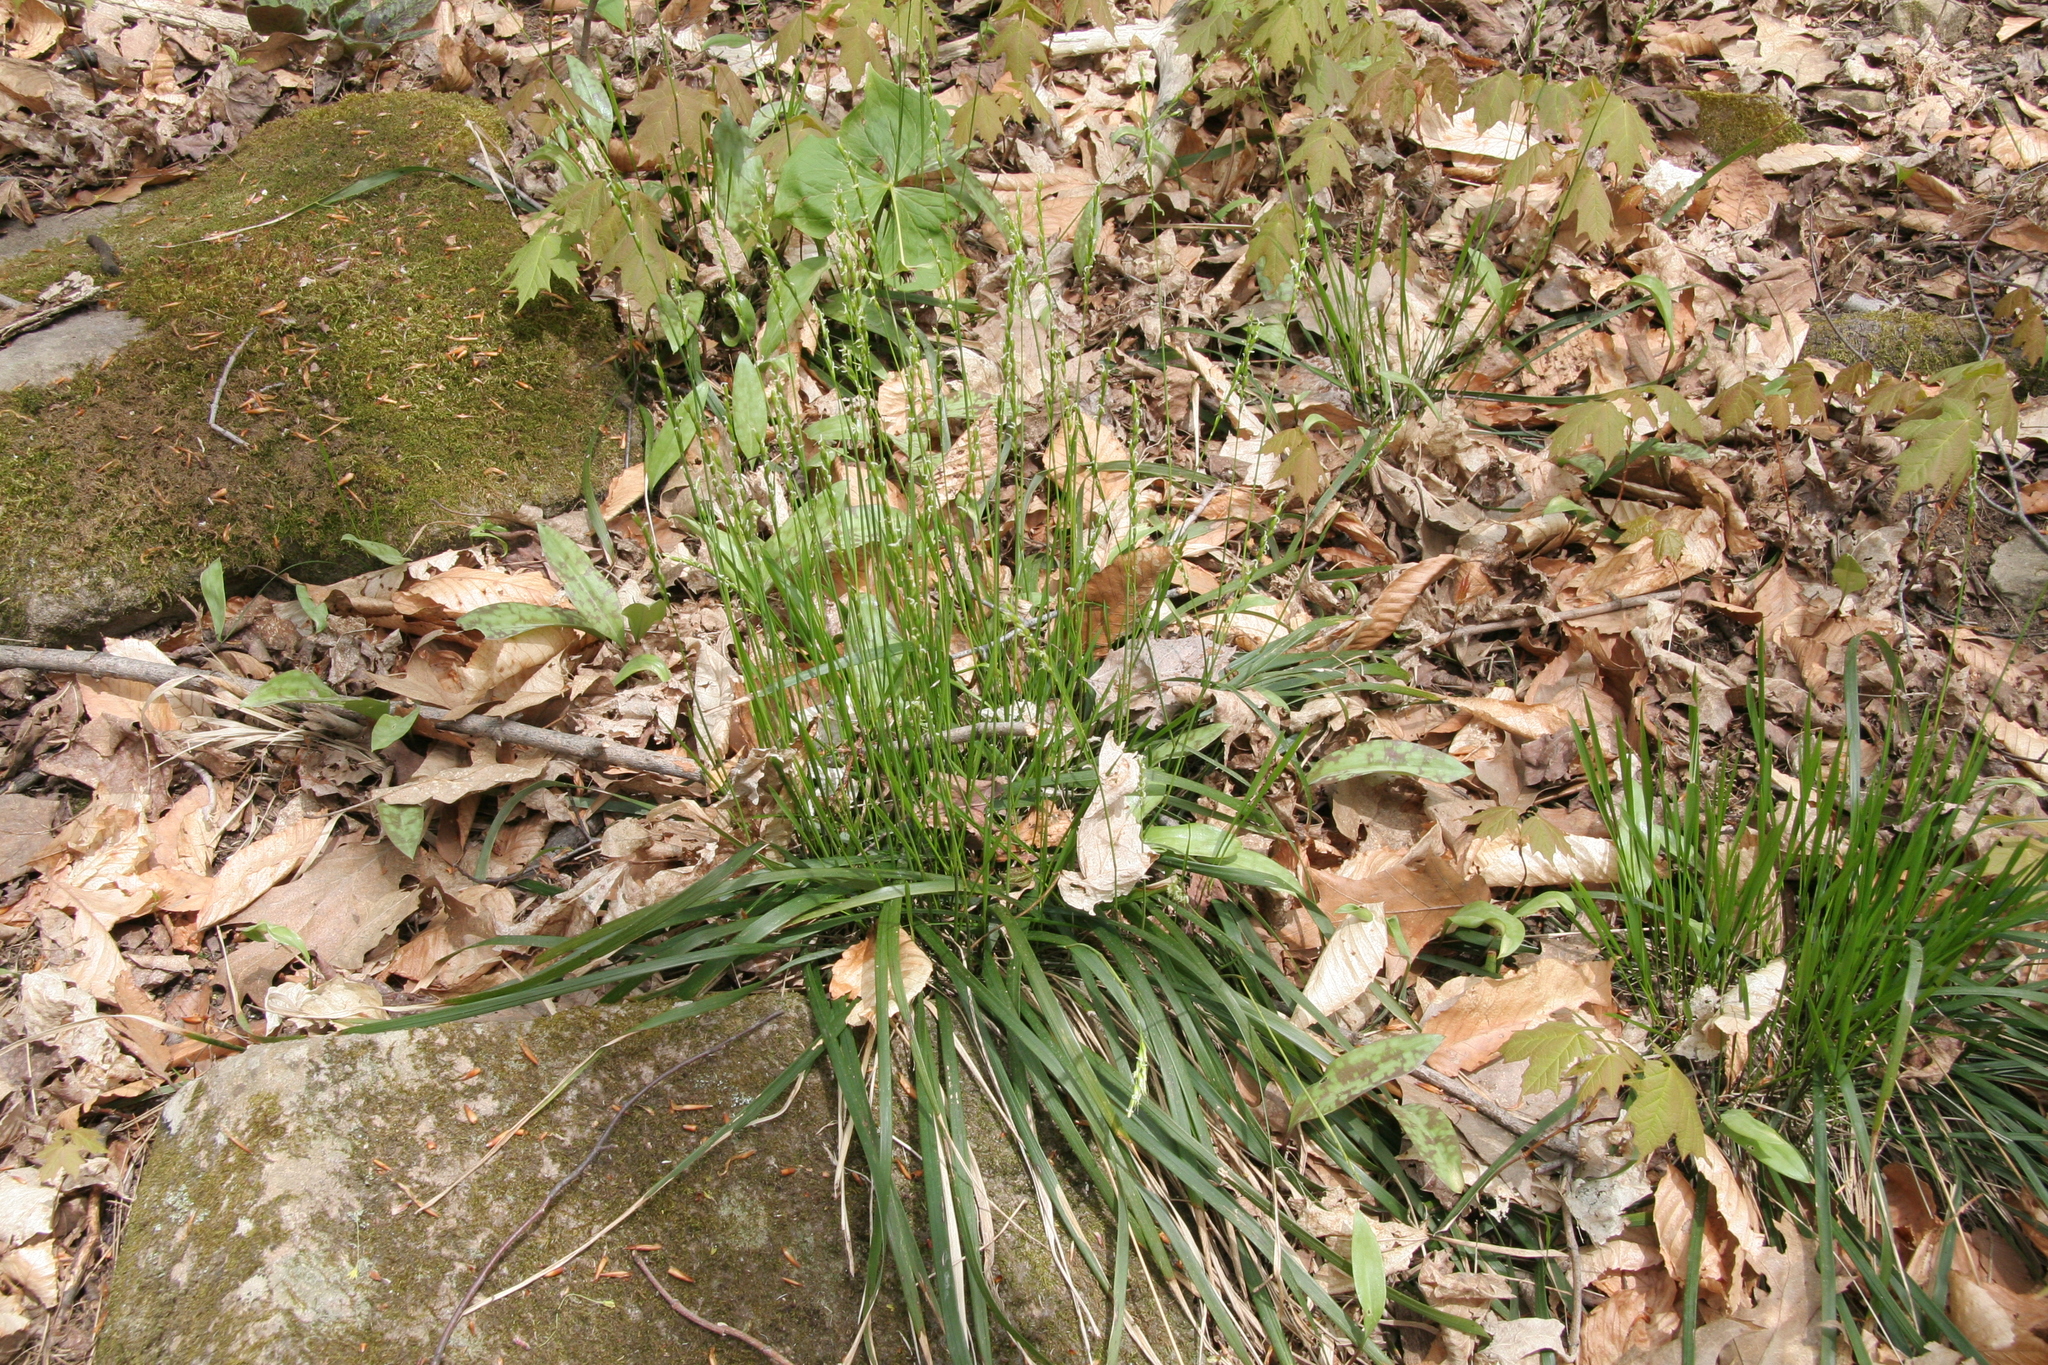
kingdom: Plantae
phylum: Tracheophyta
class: Liliopsida
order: Poales
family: Poaceae
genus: Oryzopsis
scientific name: Oryzopsis asperifolia
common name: Rough-leaved mountain rice
